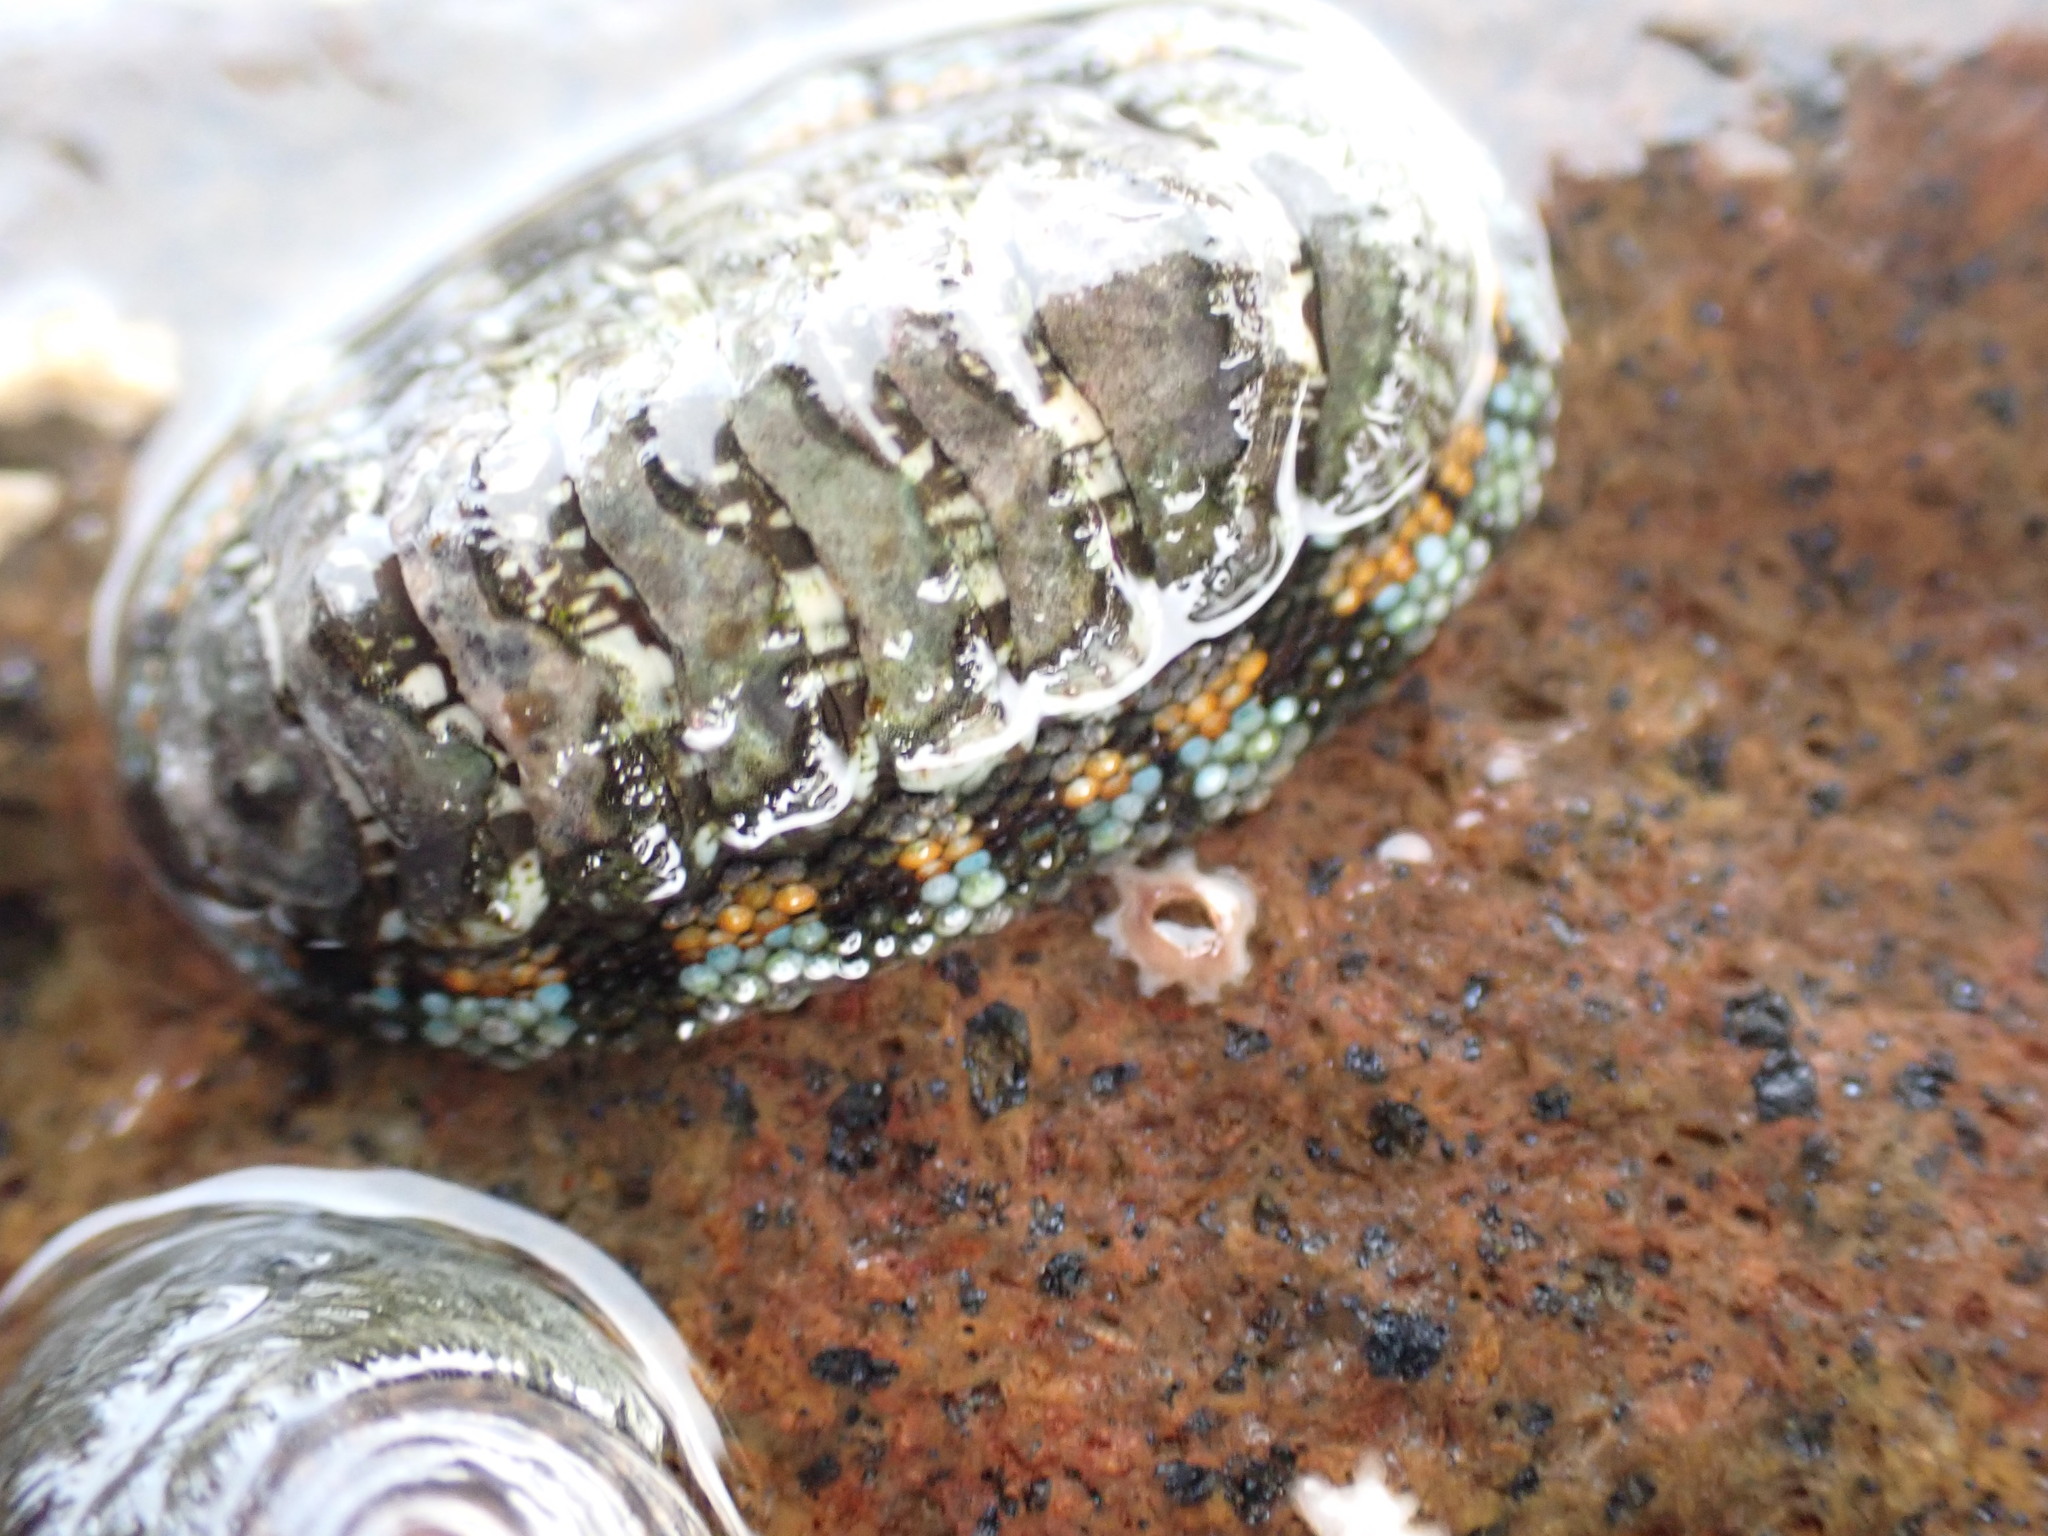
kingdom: Animalia
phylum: Mollusca
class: Polyplacophora
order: Chitonida
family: Chitonidae
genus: Sypharochiton
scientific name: Sypharochiton sinclairi
